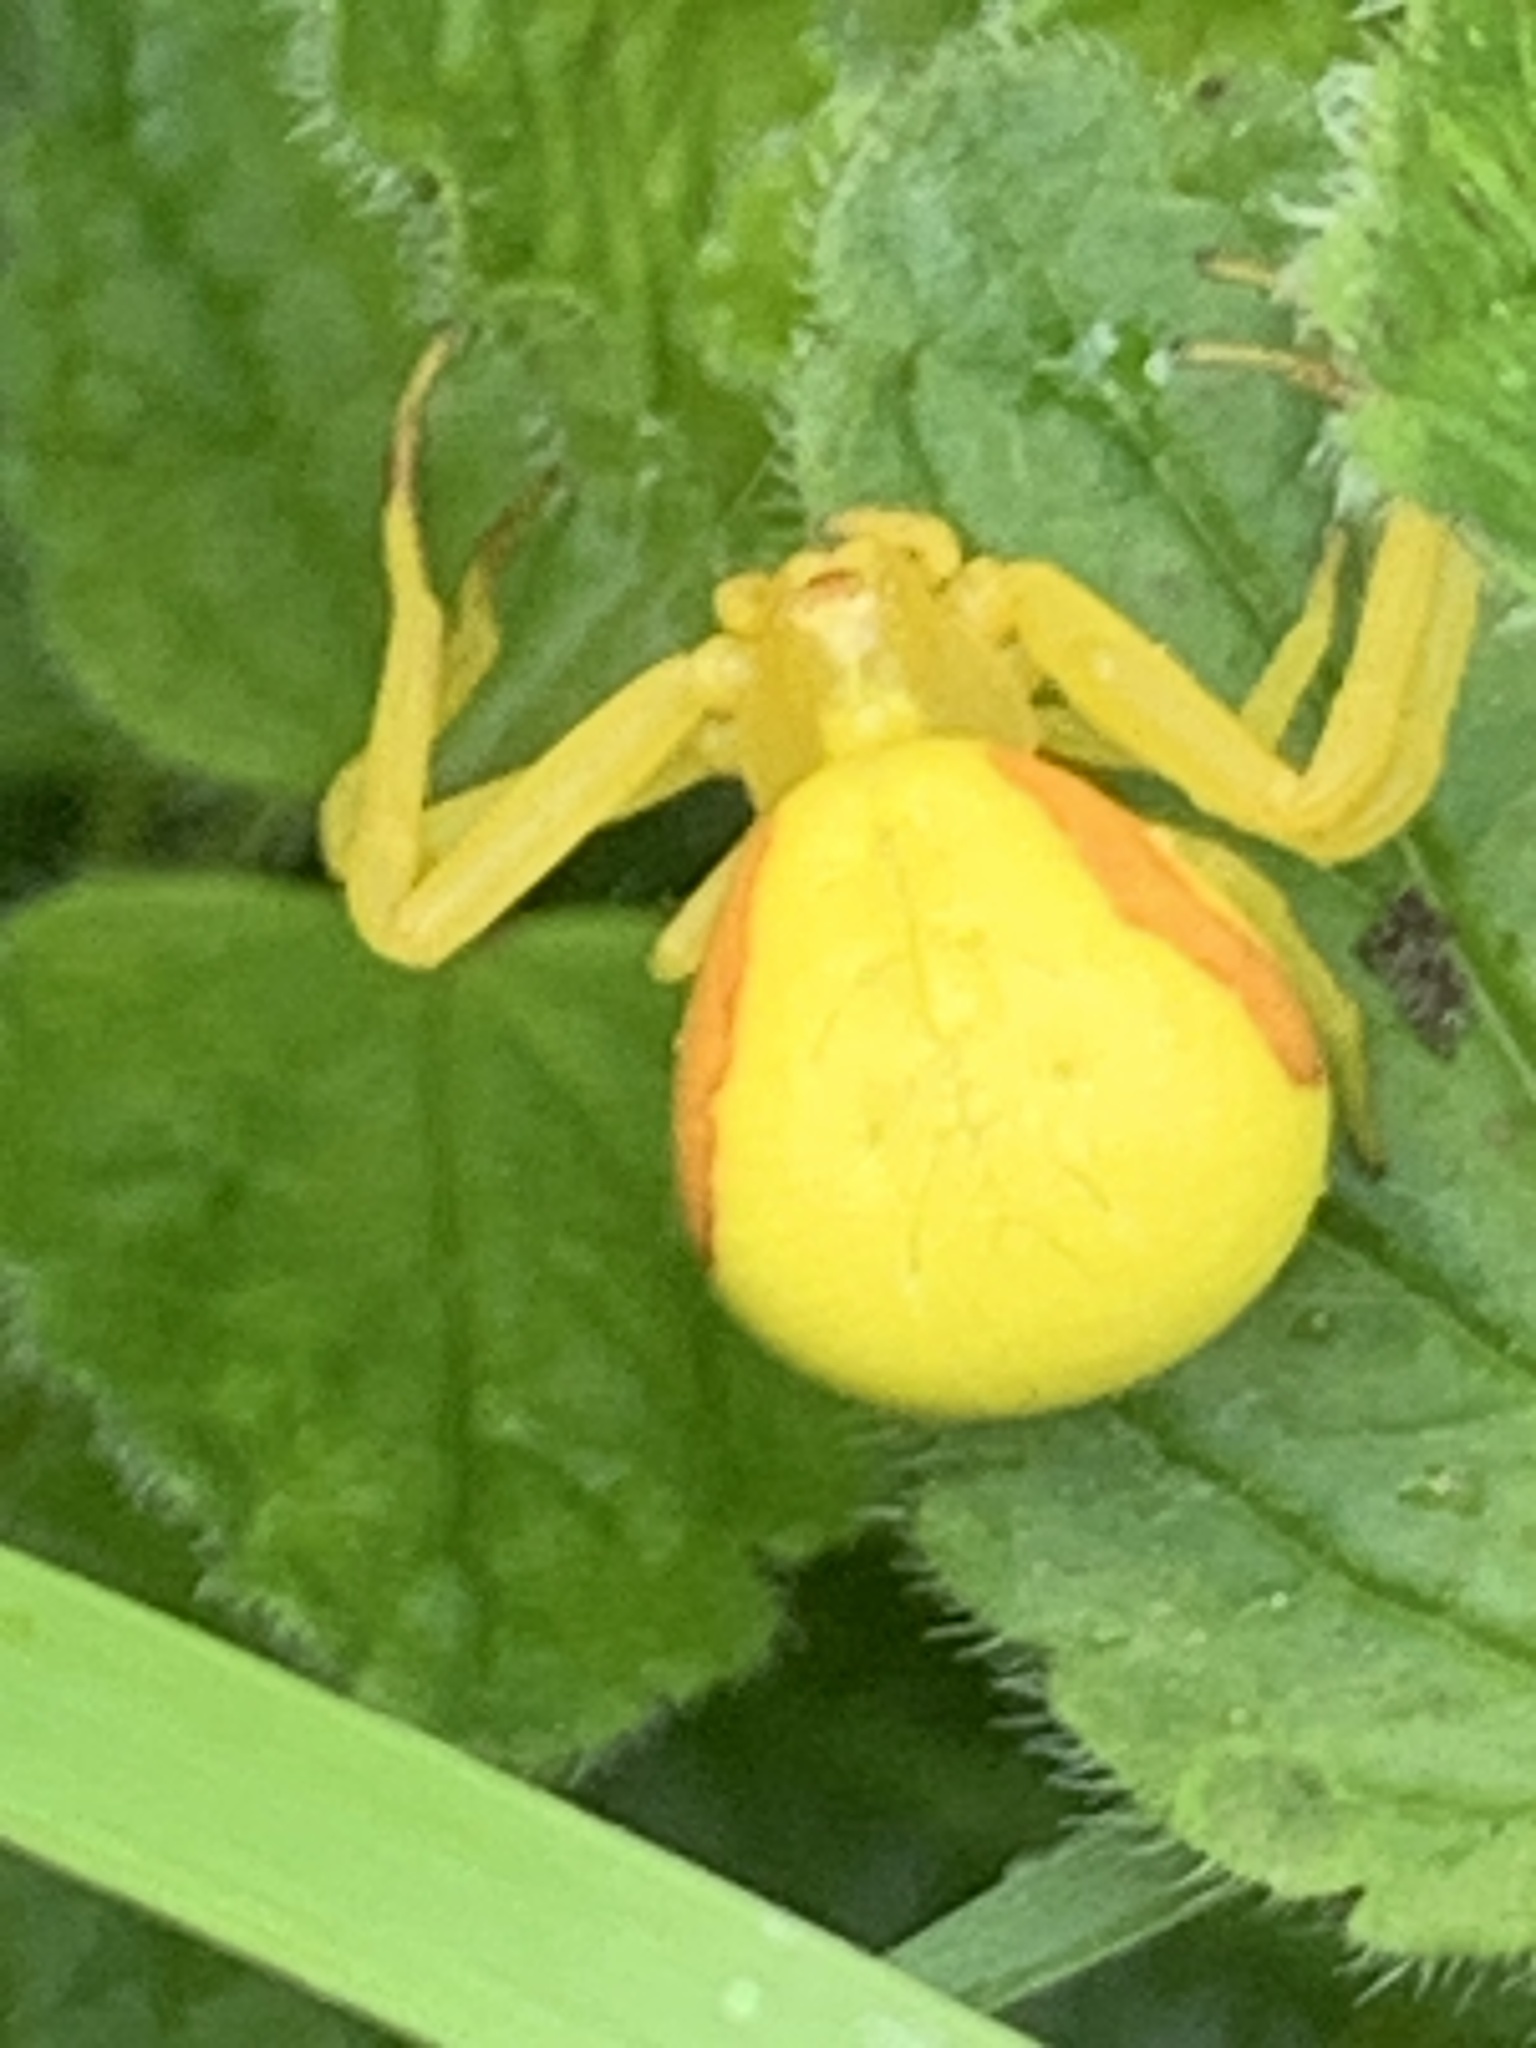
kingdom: Animalia
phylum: Arthropoda
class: Arachnida
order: Araneae
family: Thomisidae
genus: Misumena
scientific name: Misumena vatia
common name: Goldenrod crab spider
